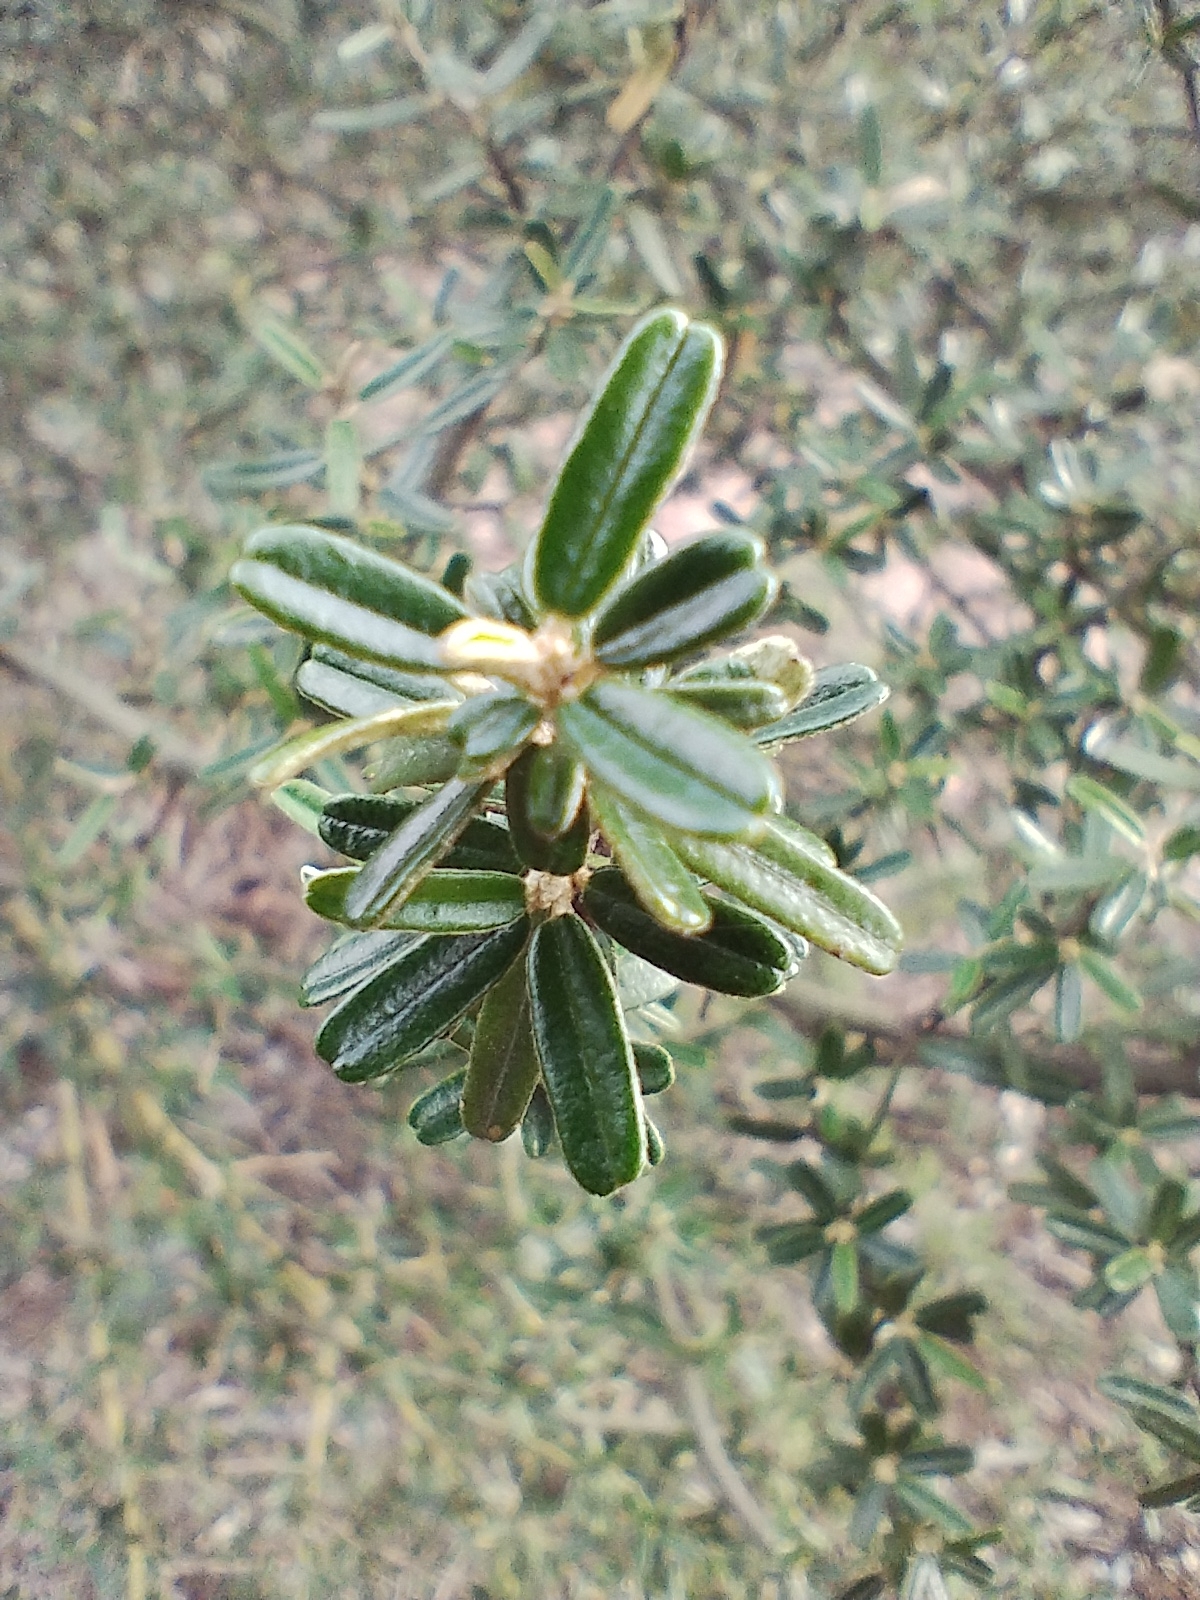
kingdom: Plantae
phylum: Tracheophyta
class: Magnoliopsida
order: Brassicales
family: Capparaceae
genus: Atamisquea
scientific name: Atamisquea emarginata
